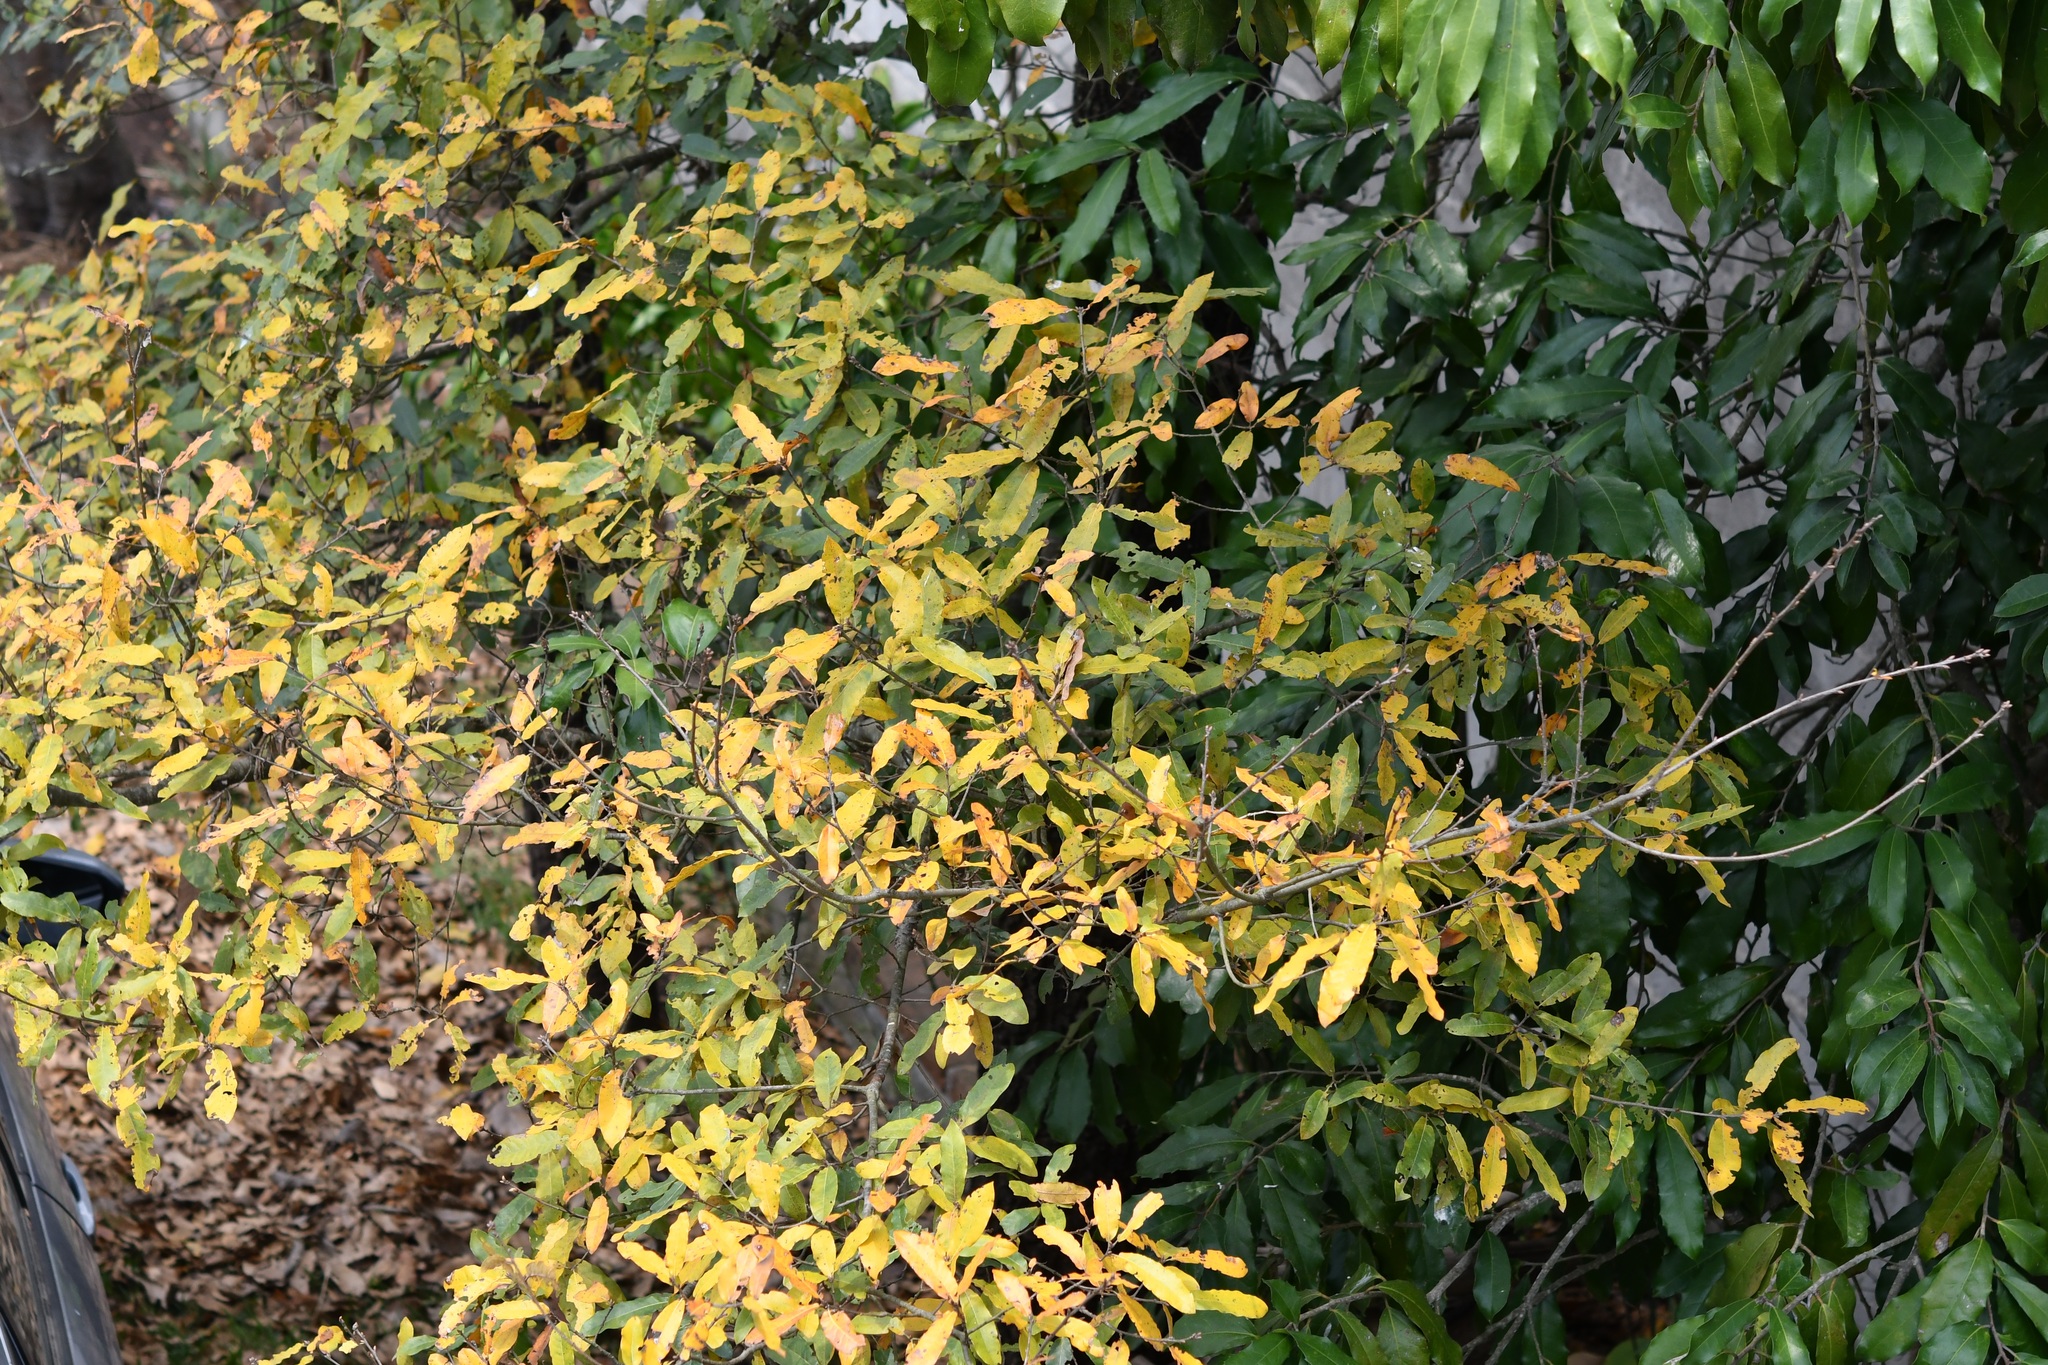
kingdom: Plantae
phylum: Tracheophyta
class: Magnoliopsida
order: Fagales
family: Fagaceae
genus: Quercus
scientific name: Quercus crispipilis
